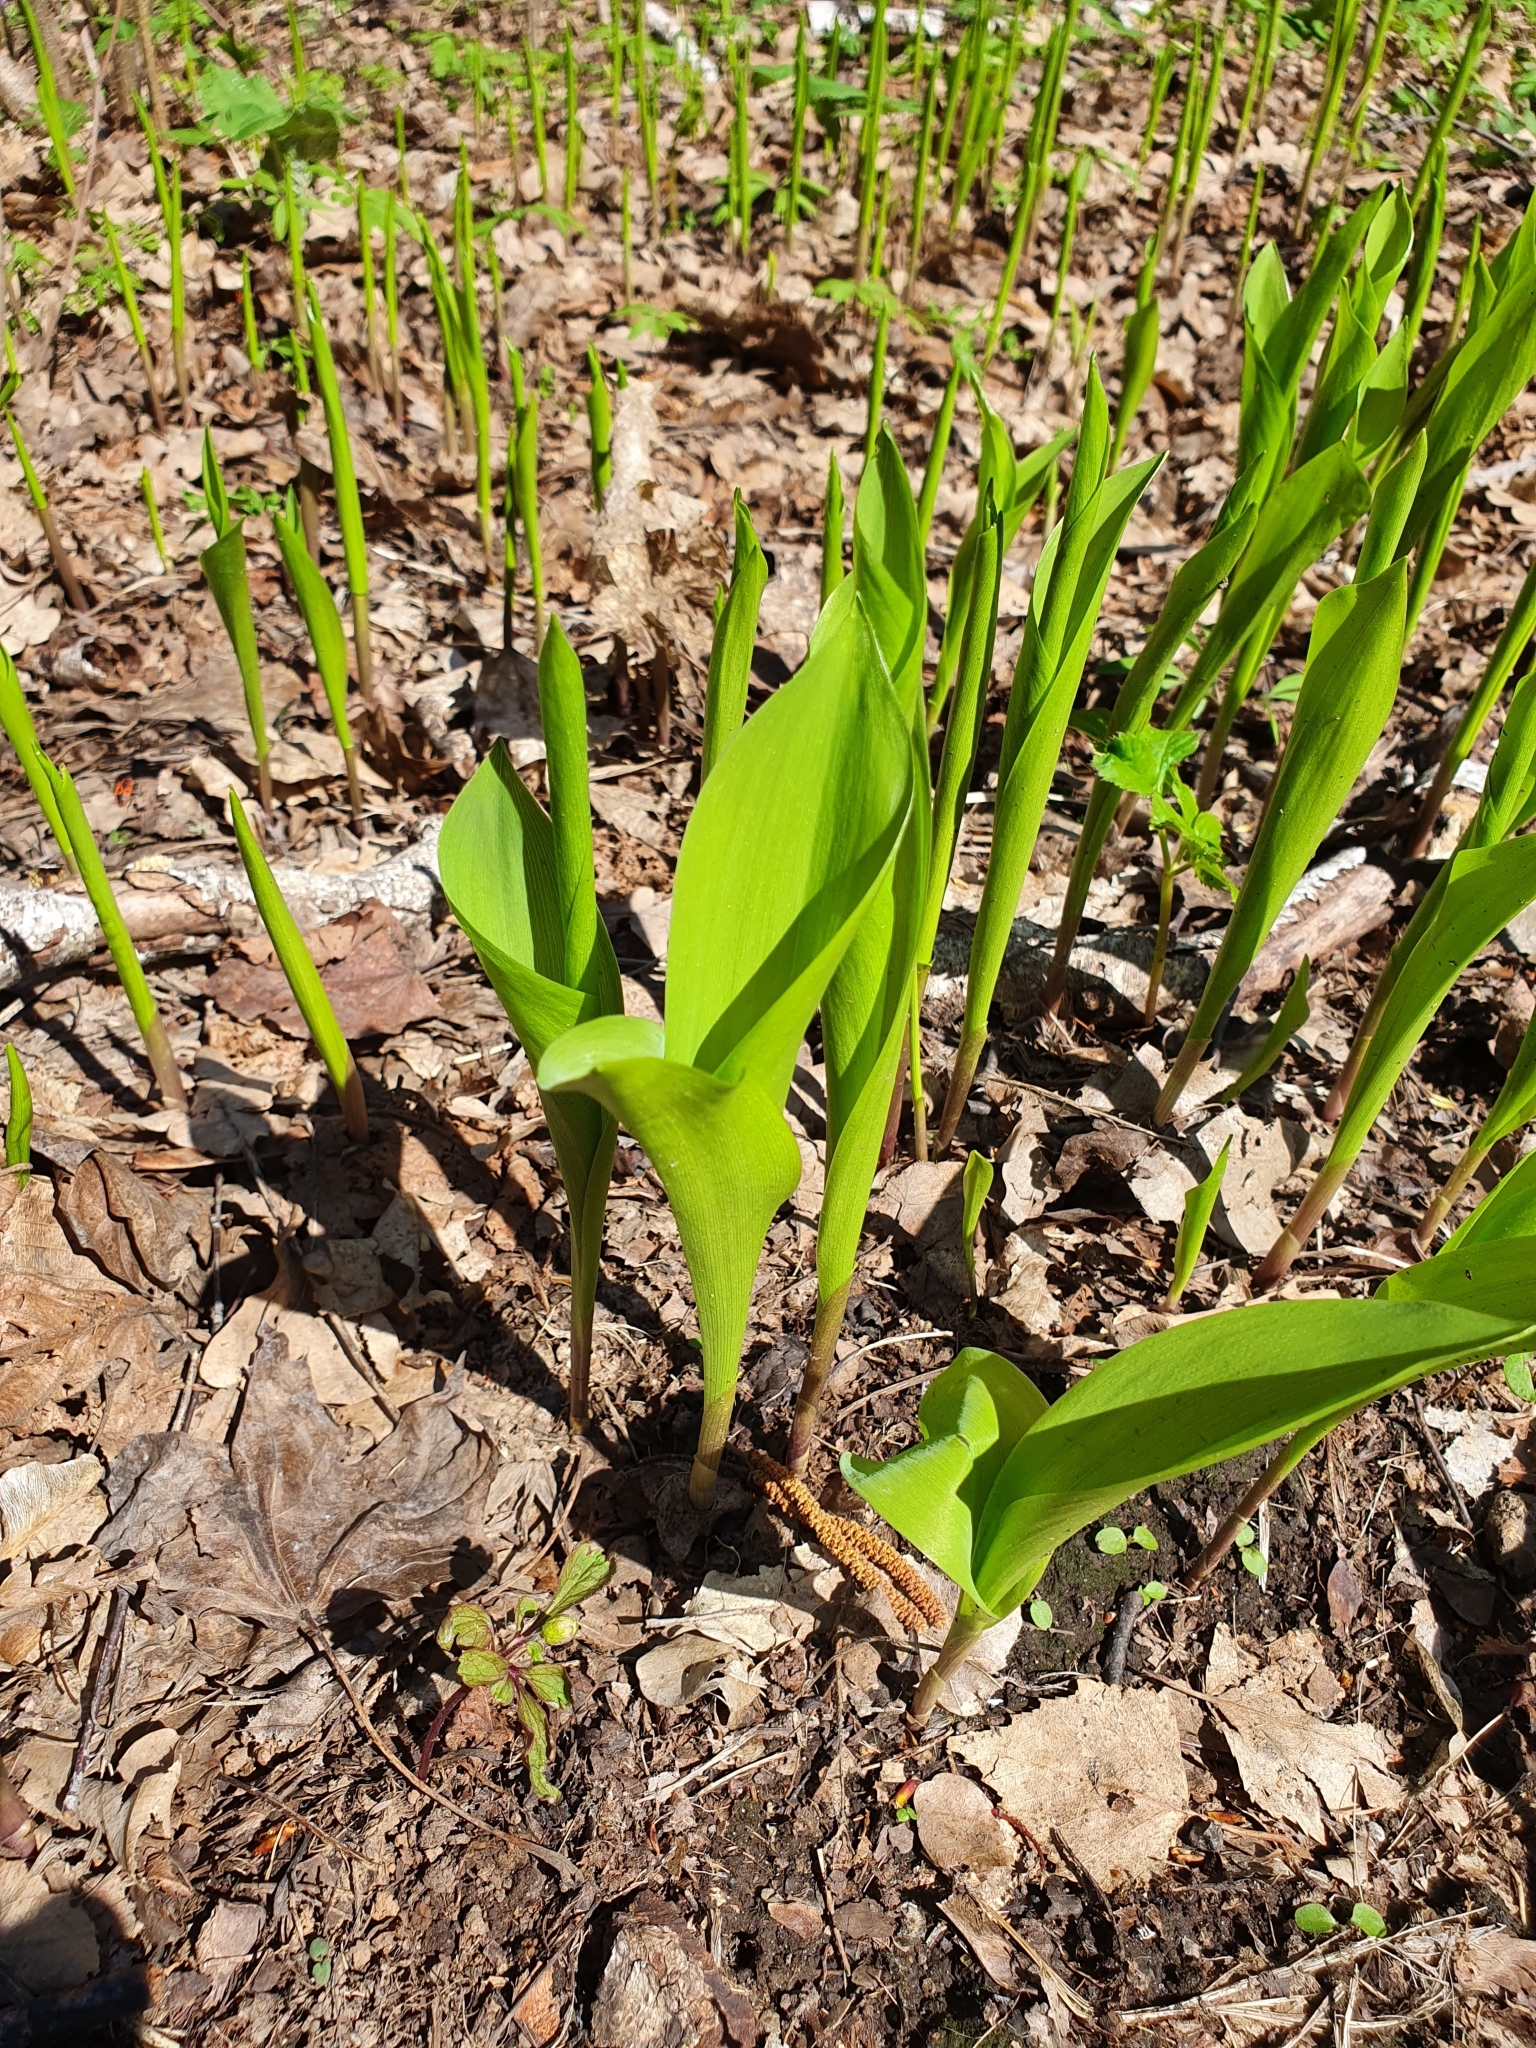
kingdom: Plantae
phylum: Tracheophyta
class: Liliopsida
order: Asparagales
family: Asparagaceae
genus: Convallaria
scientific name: Convallaria majalis
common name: Lily-of-the-valley
